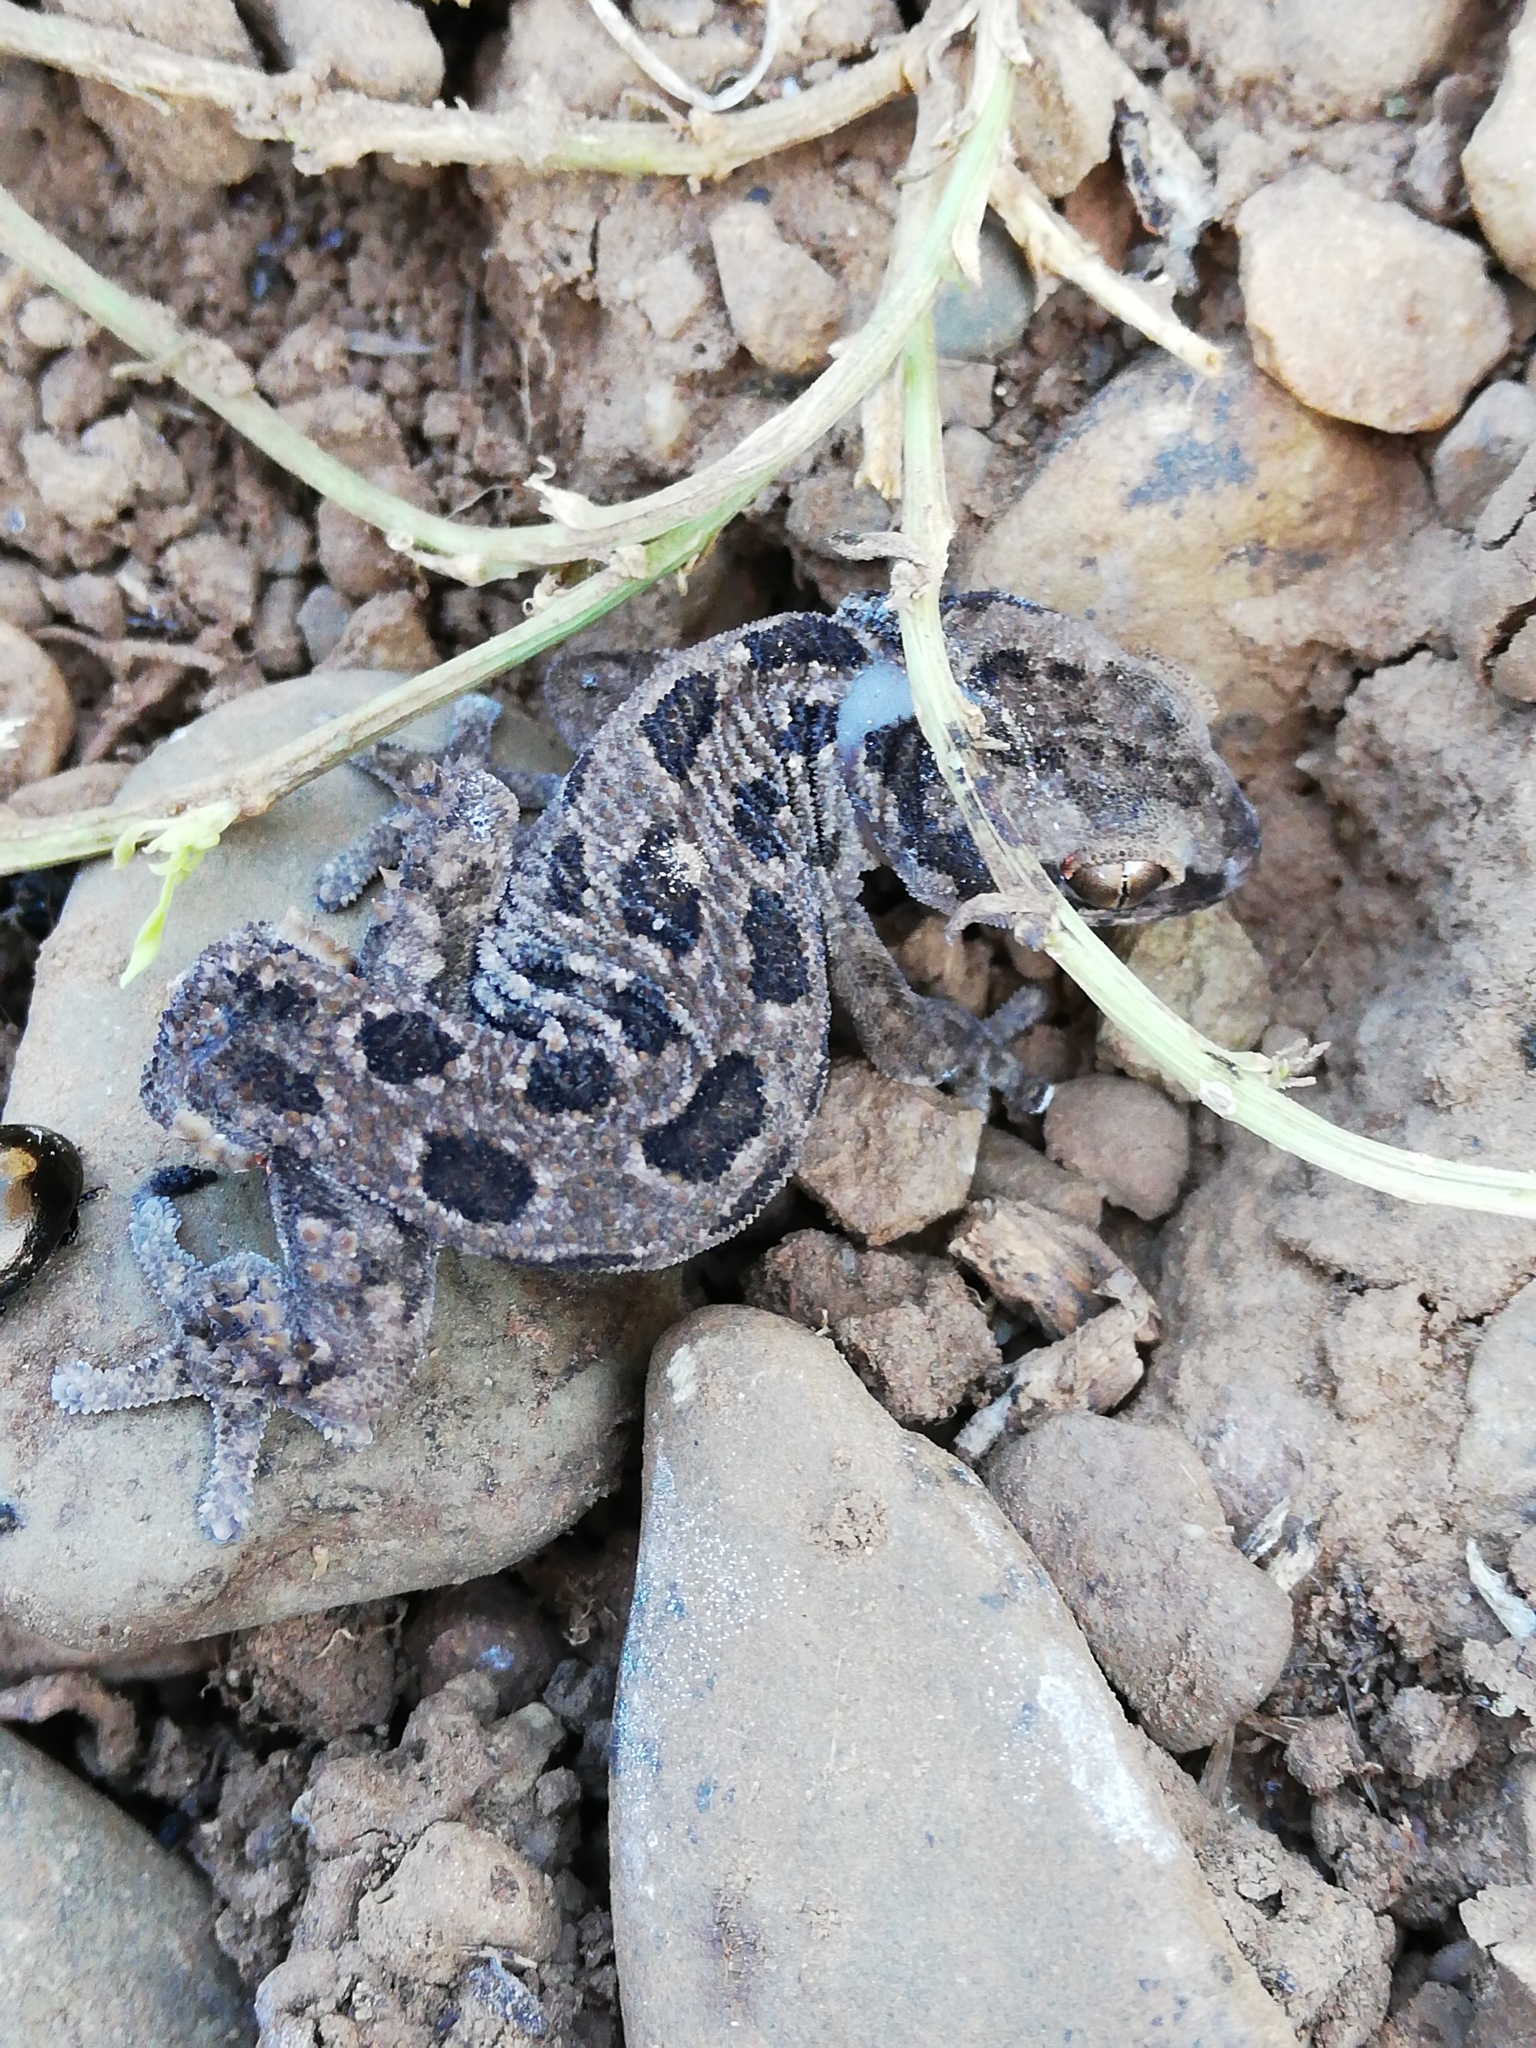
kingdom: Animalia
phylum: Chordata
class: Squamata
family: Gekkonidae
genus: Pachydactylus
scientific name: Pachydactylus maculatus
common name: Spotted thick-toed gecko
